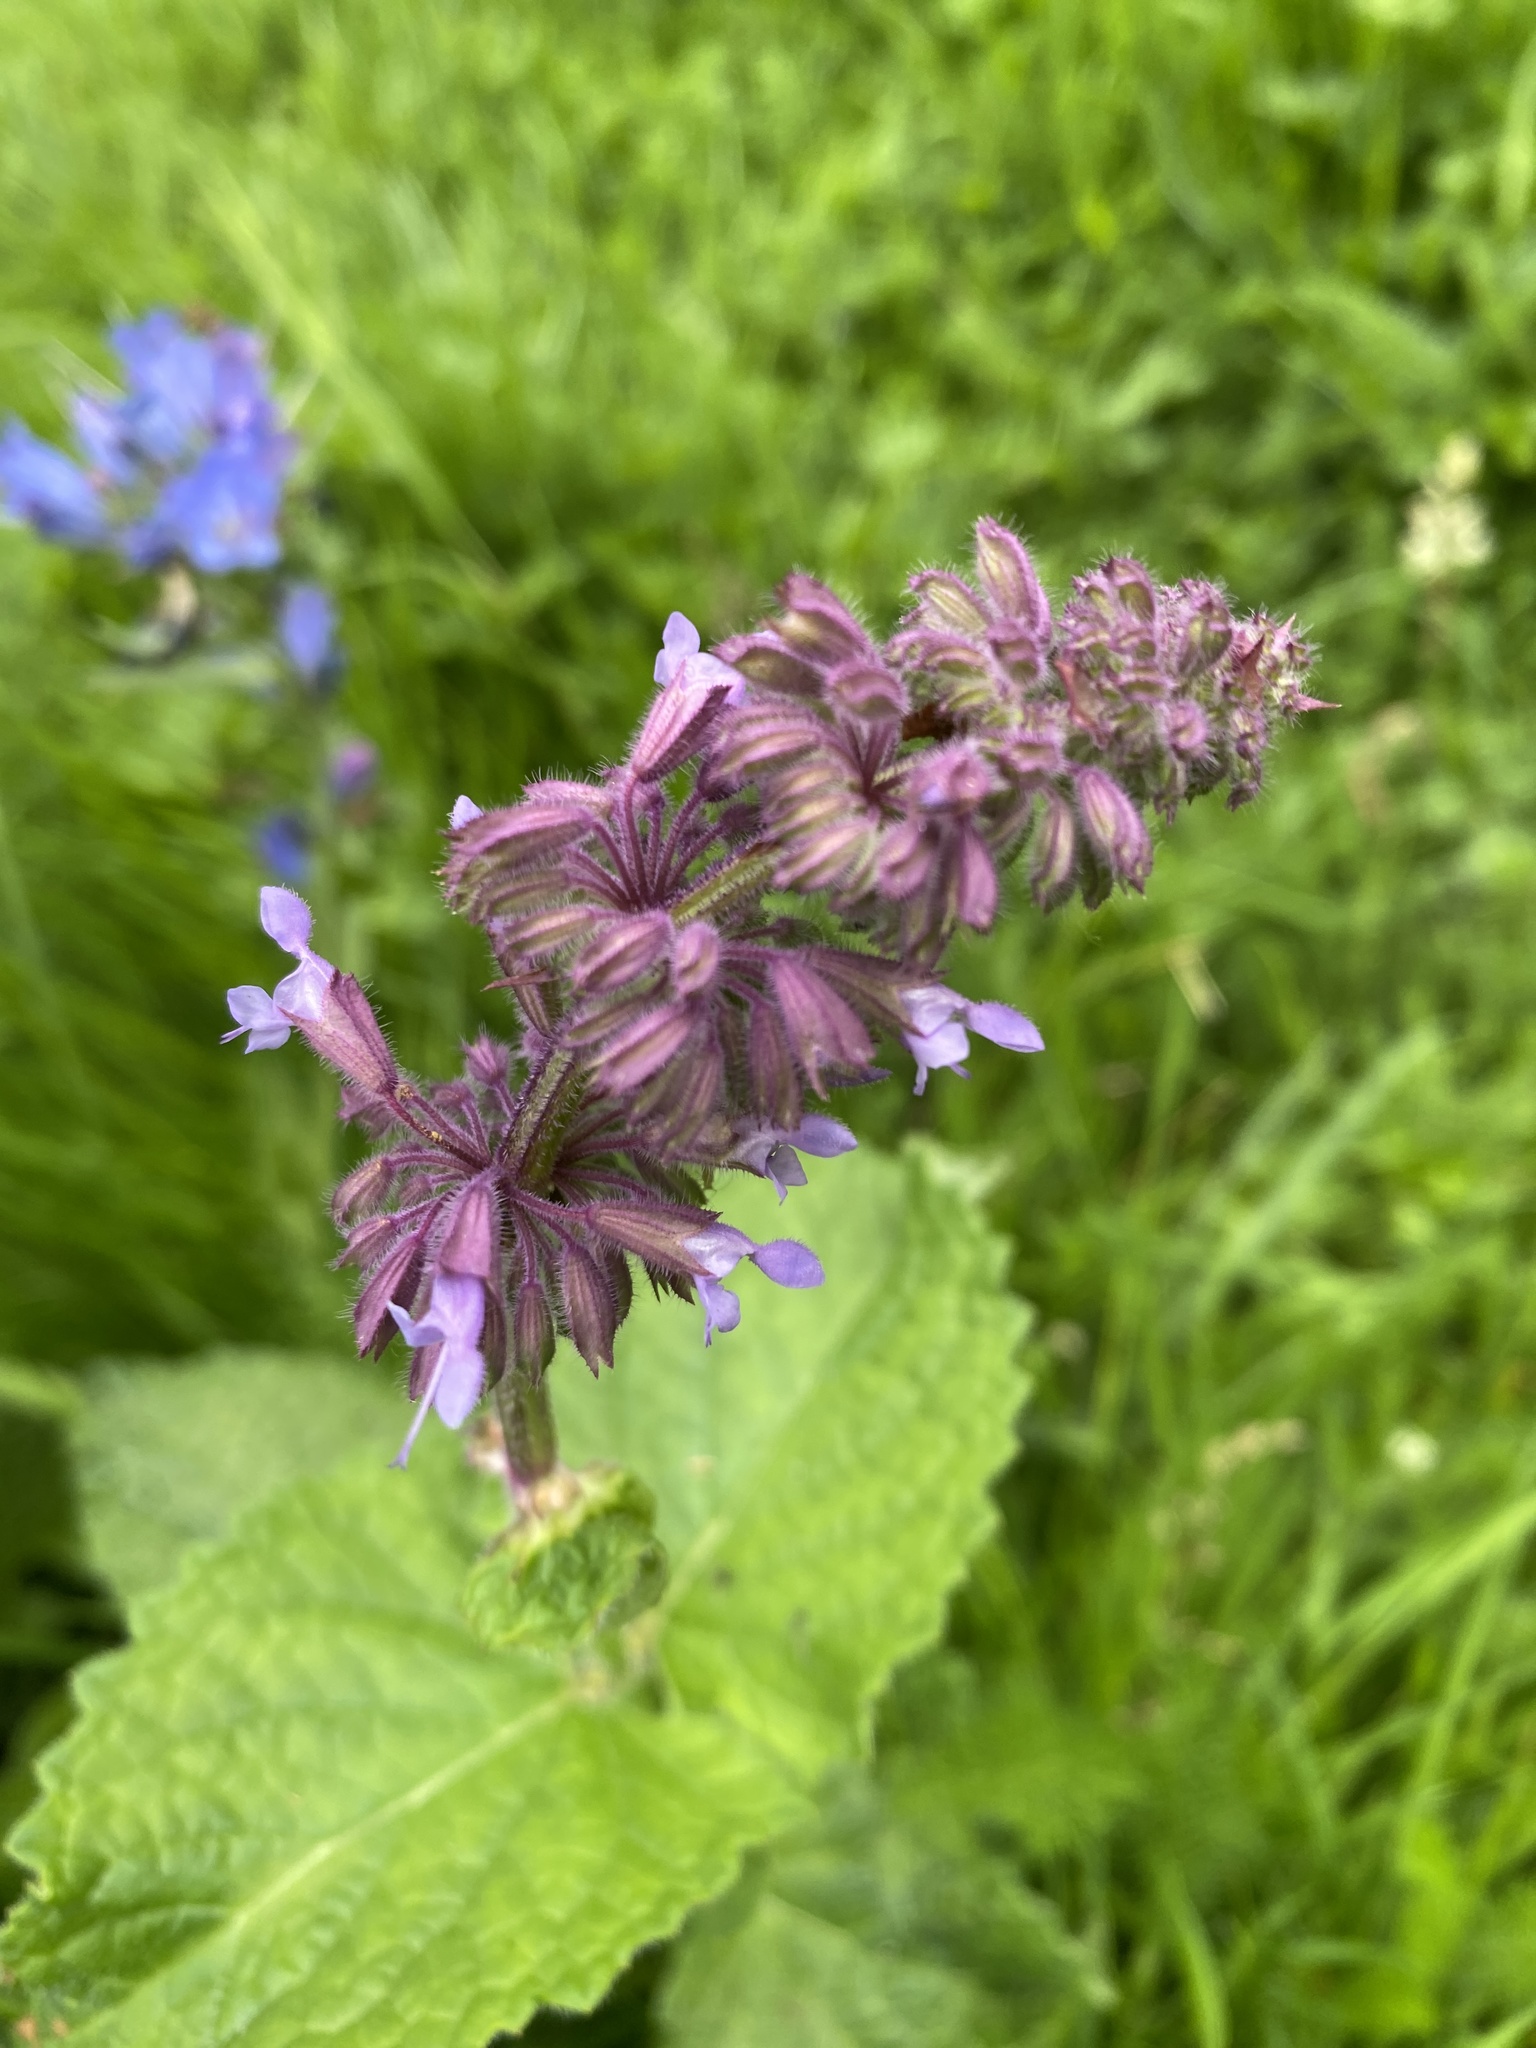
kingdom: Plantae
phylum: Tracheophyta
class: Magnoliopsida
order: Lamiales
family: Lamiaceae
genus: Salvia
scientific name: Salvia verticillata
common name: Whorled clary
